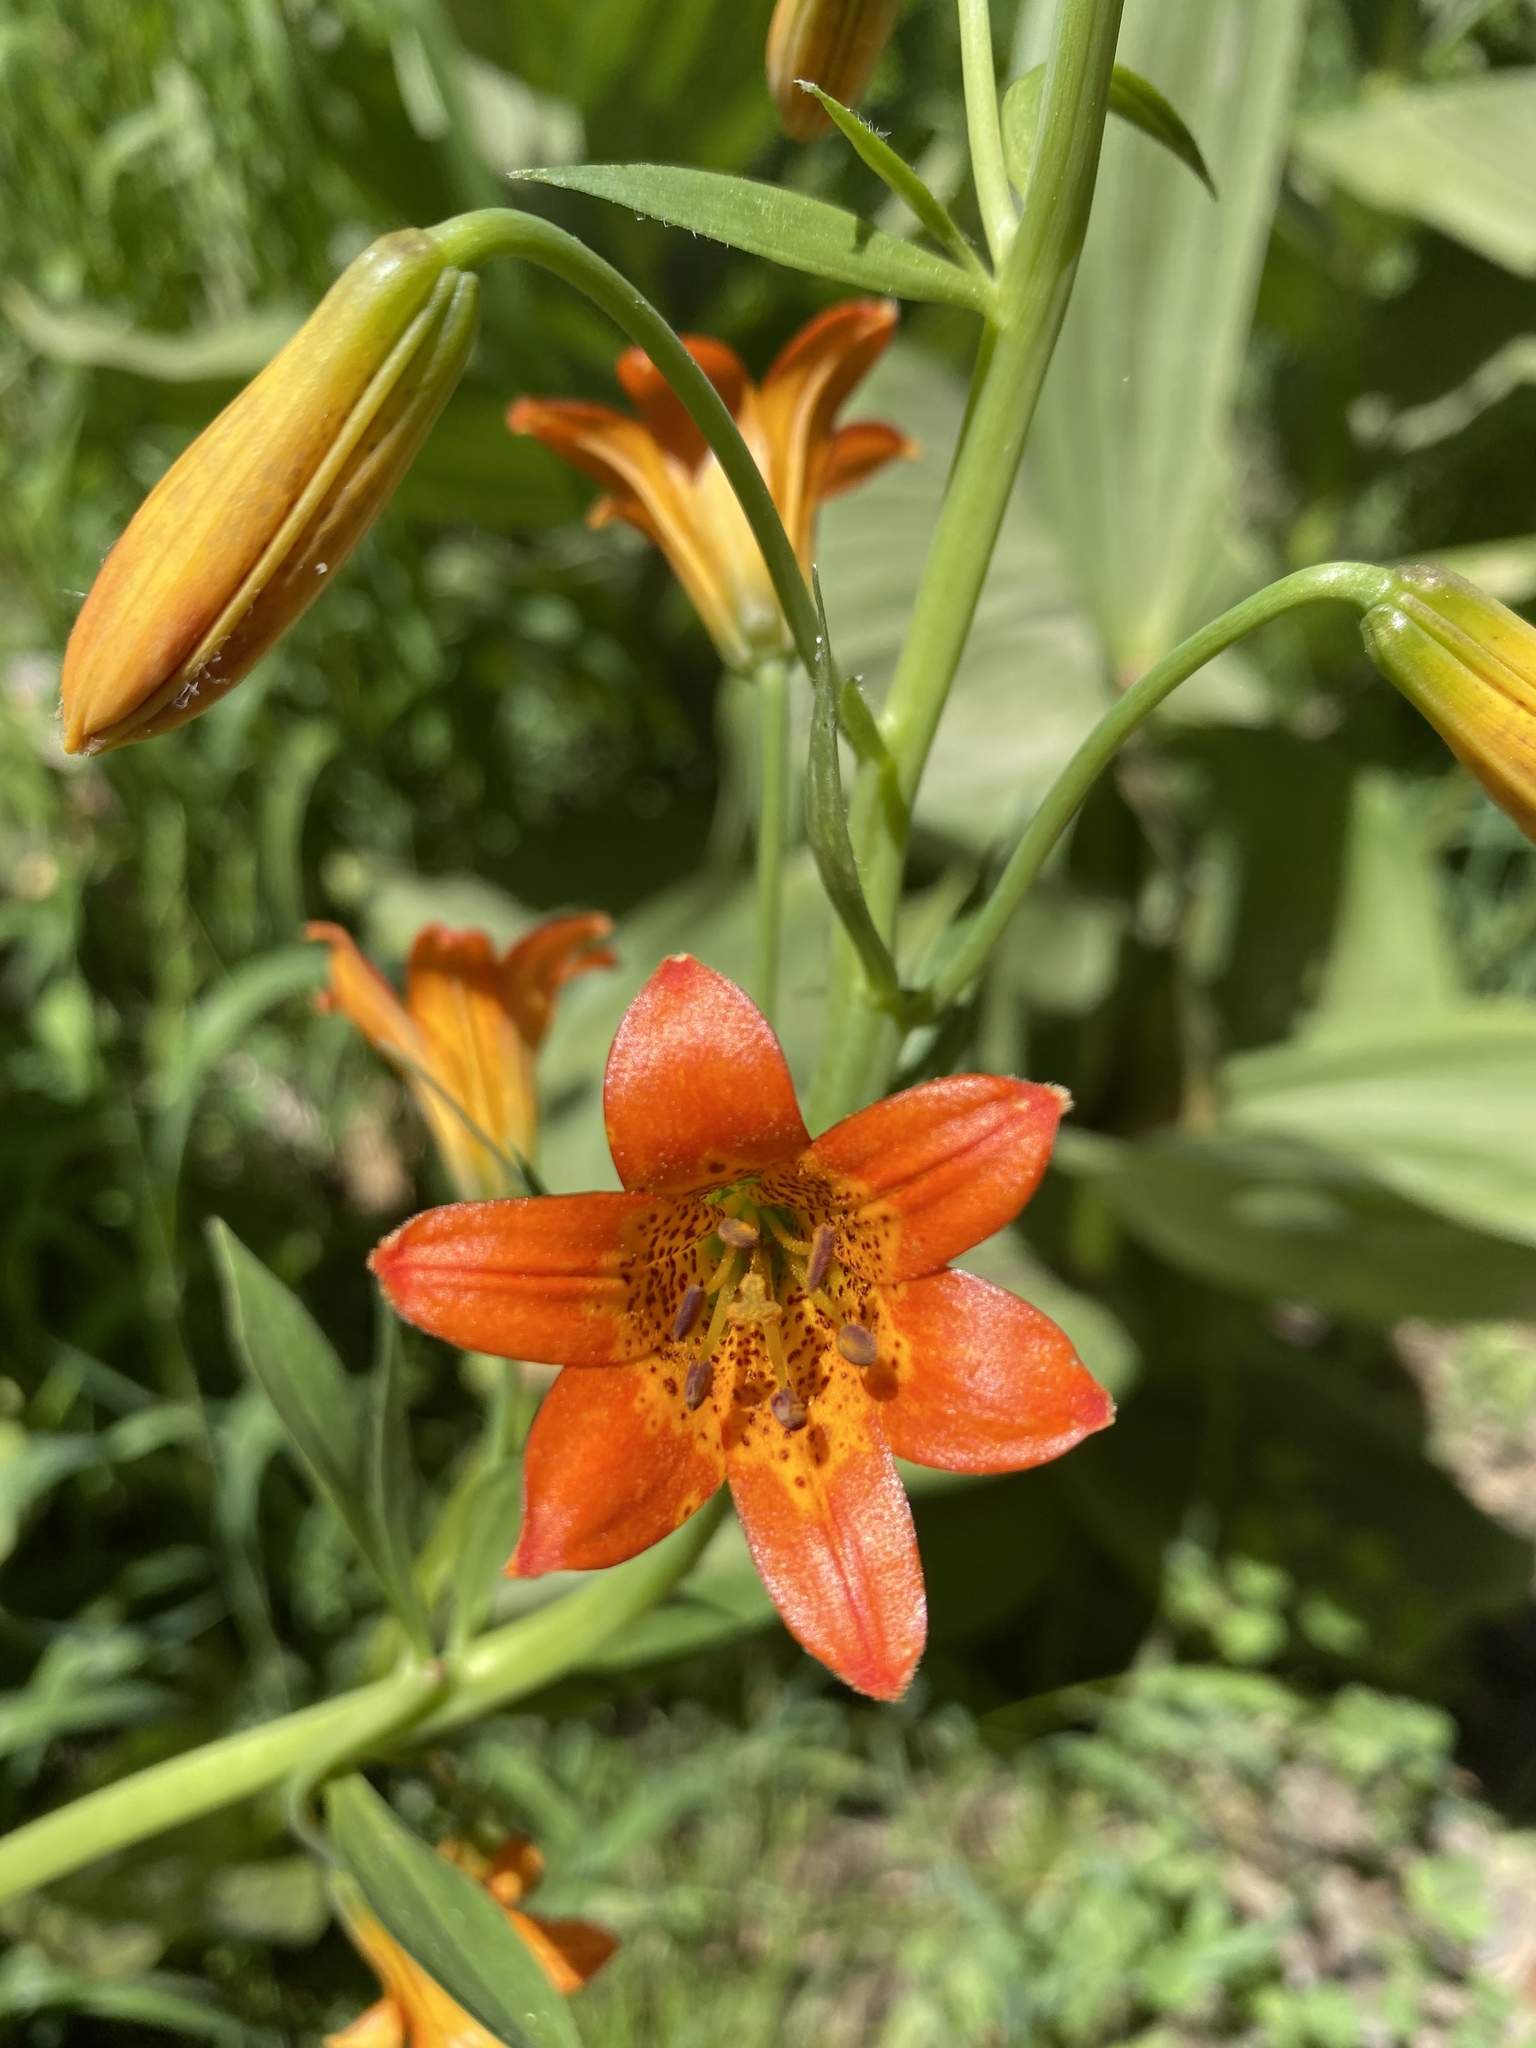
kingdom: Plantae
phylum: Tracheophyta
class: Liliopsida
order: Liliales
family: Liliaceae
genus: Lilium
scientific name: Lilium parvum
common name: Alpine lily
